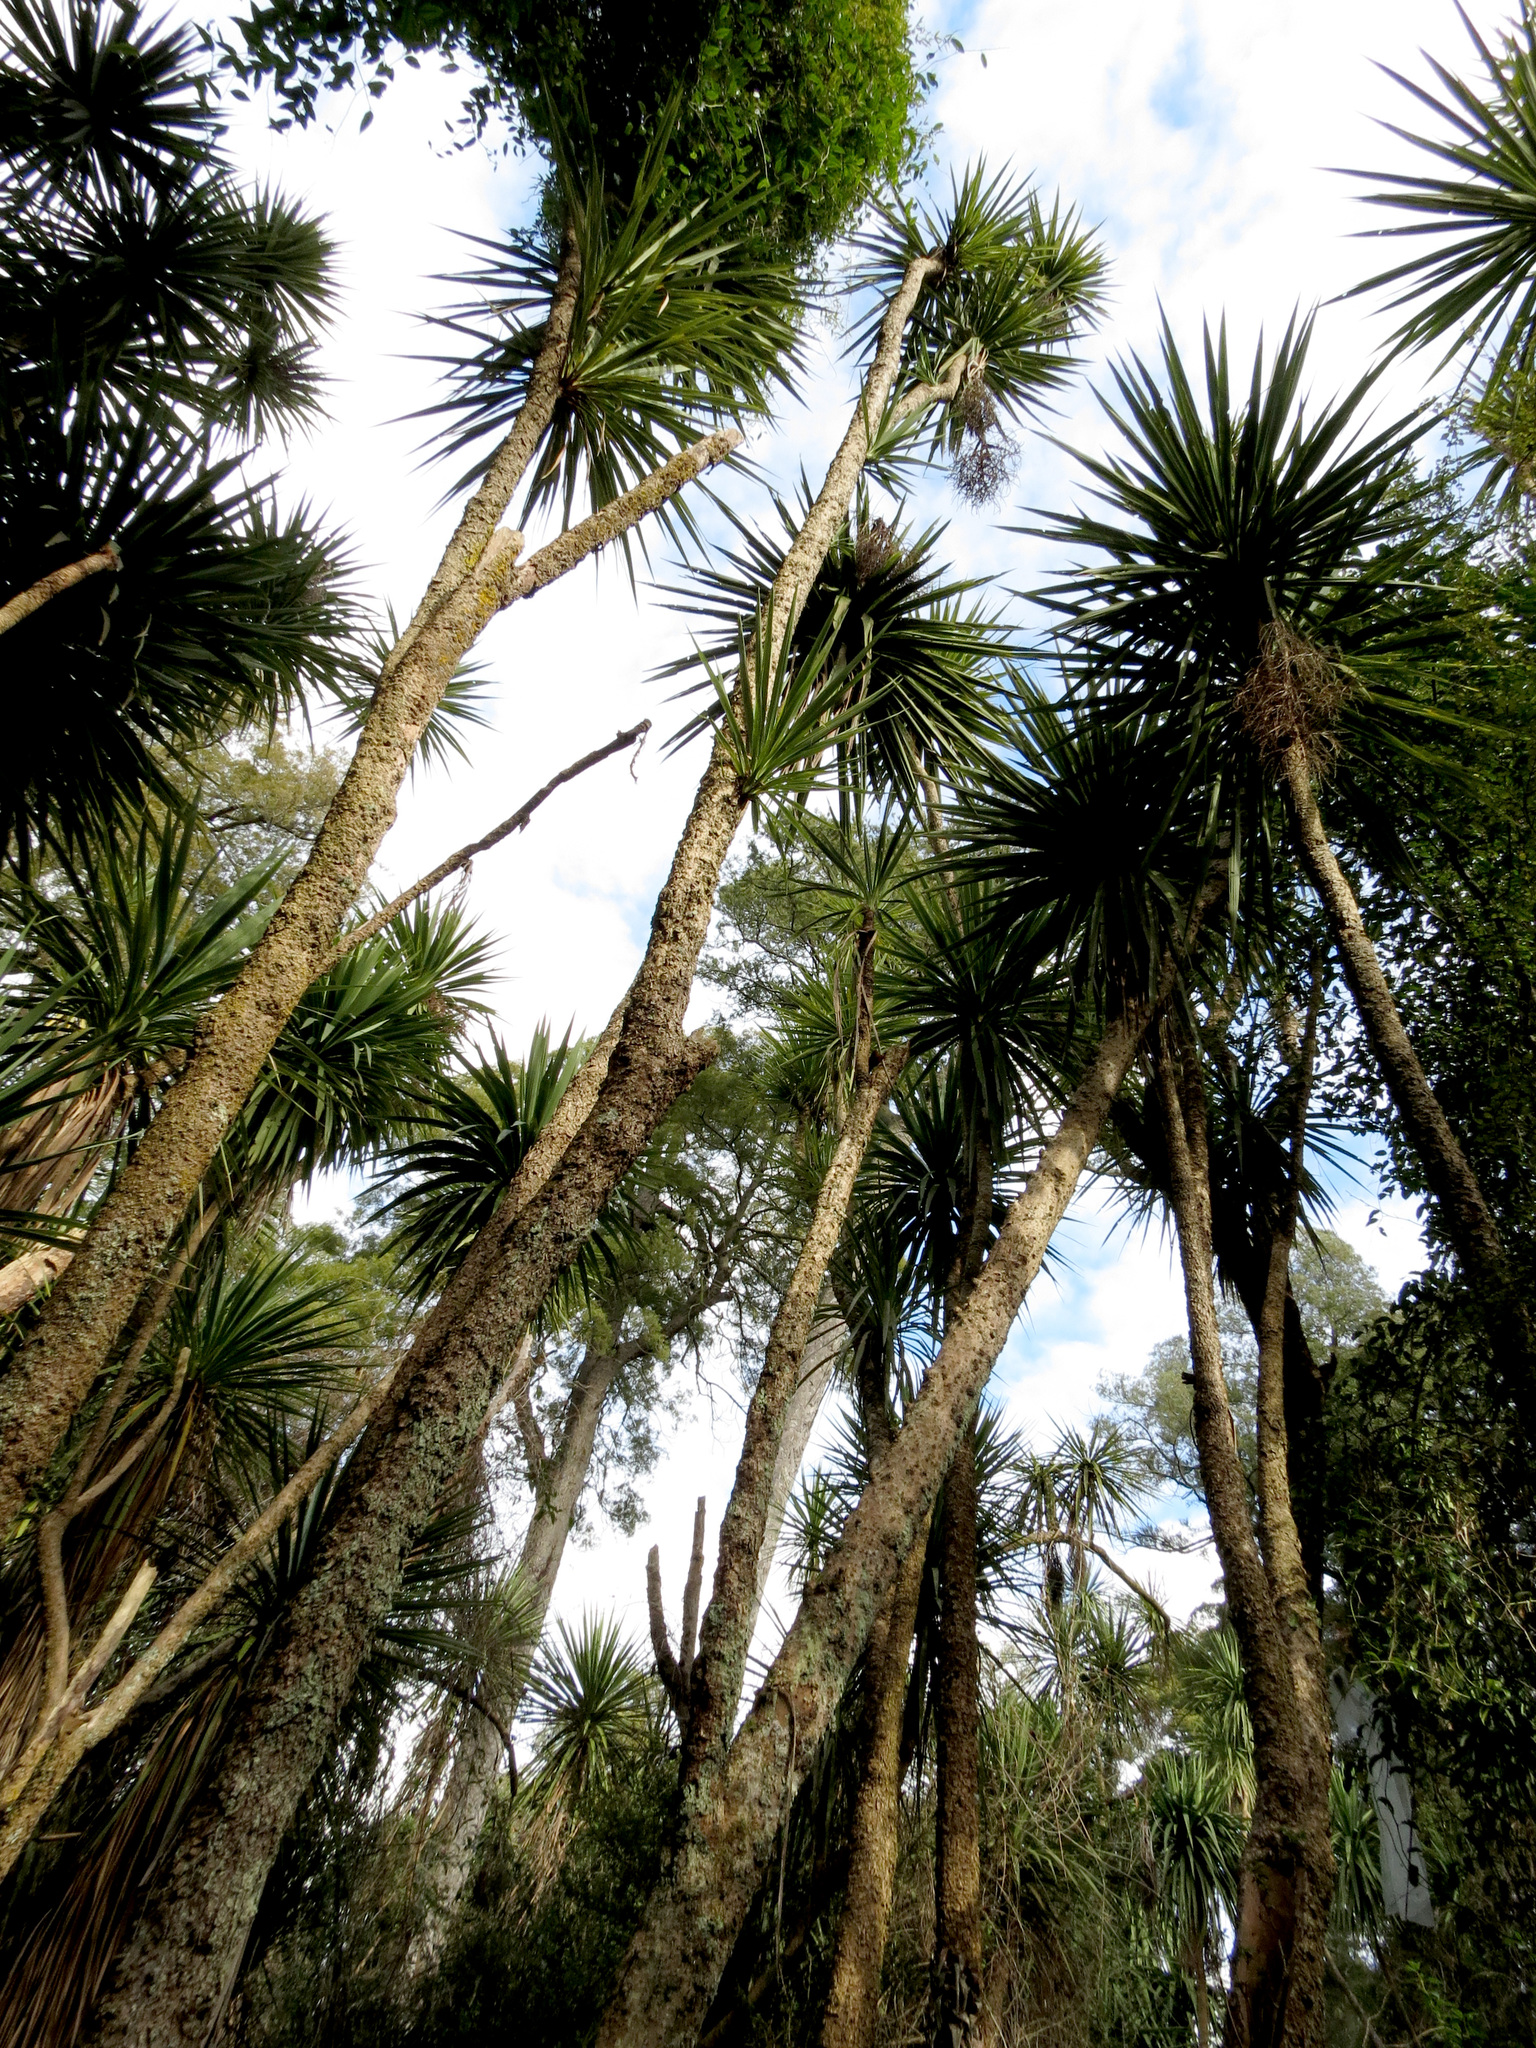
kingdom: Plantae
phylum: Tracheophyta
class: Liliopsida
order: Asparagales
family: Asparagaceae
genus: Cordyline
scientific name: Cordyline australis
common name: Cabbage-palm
